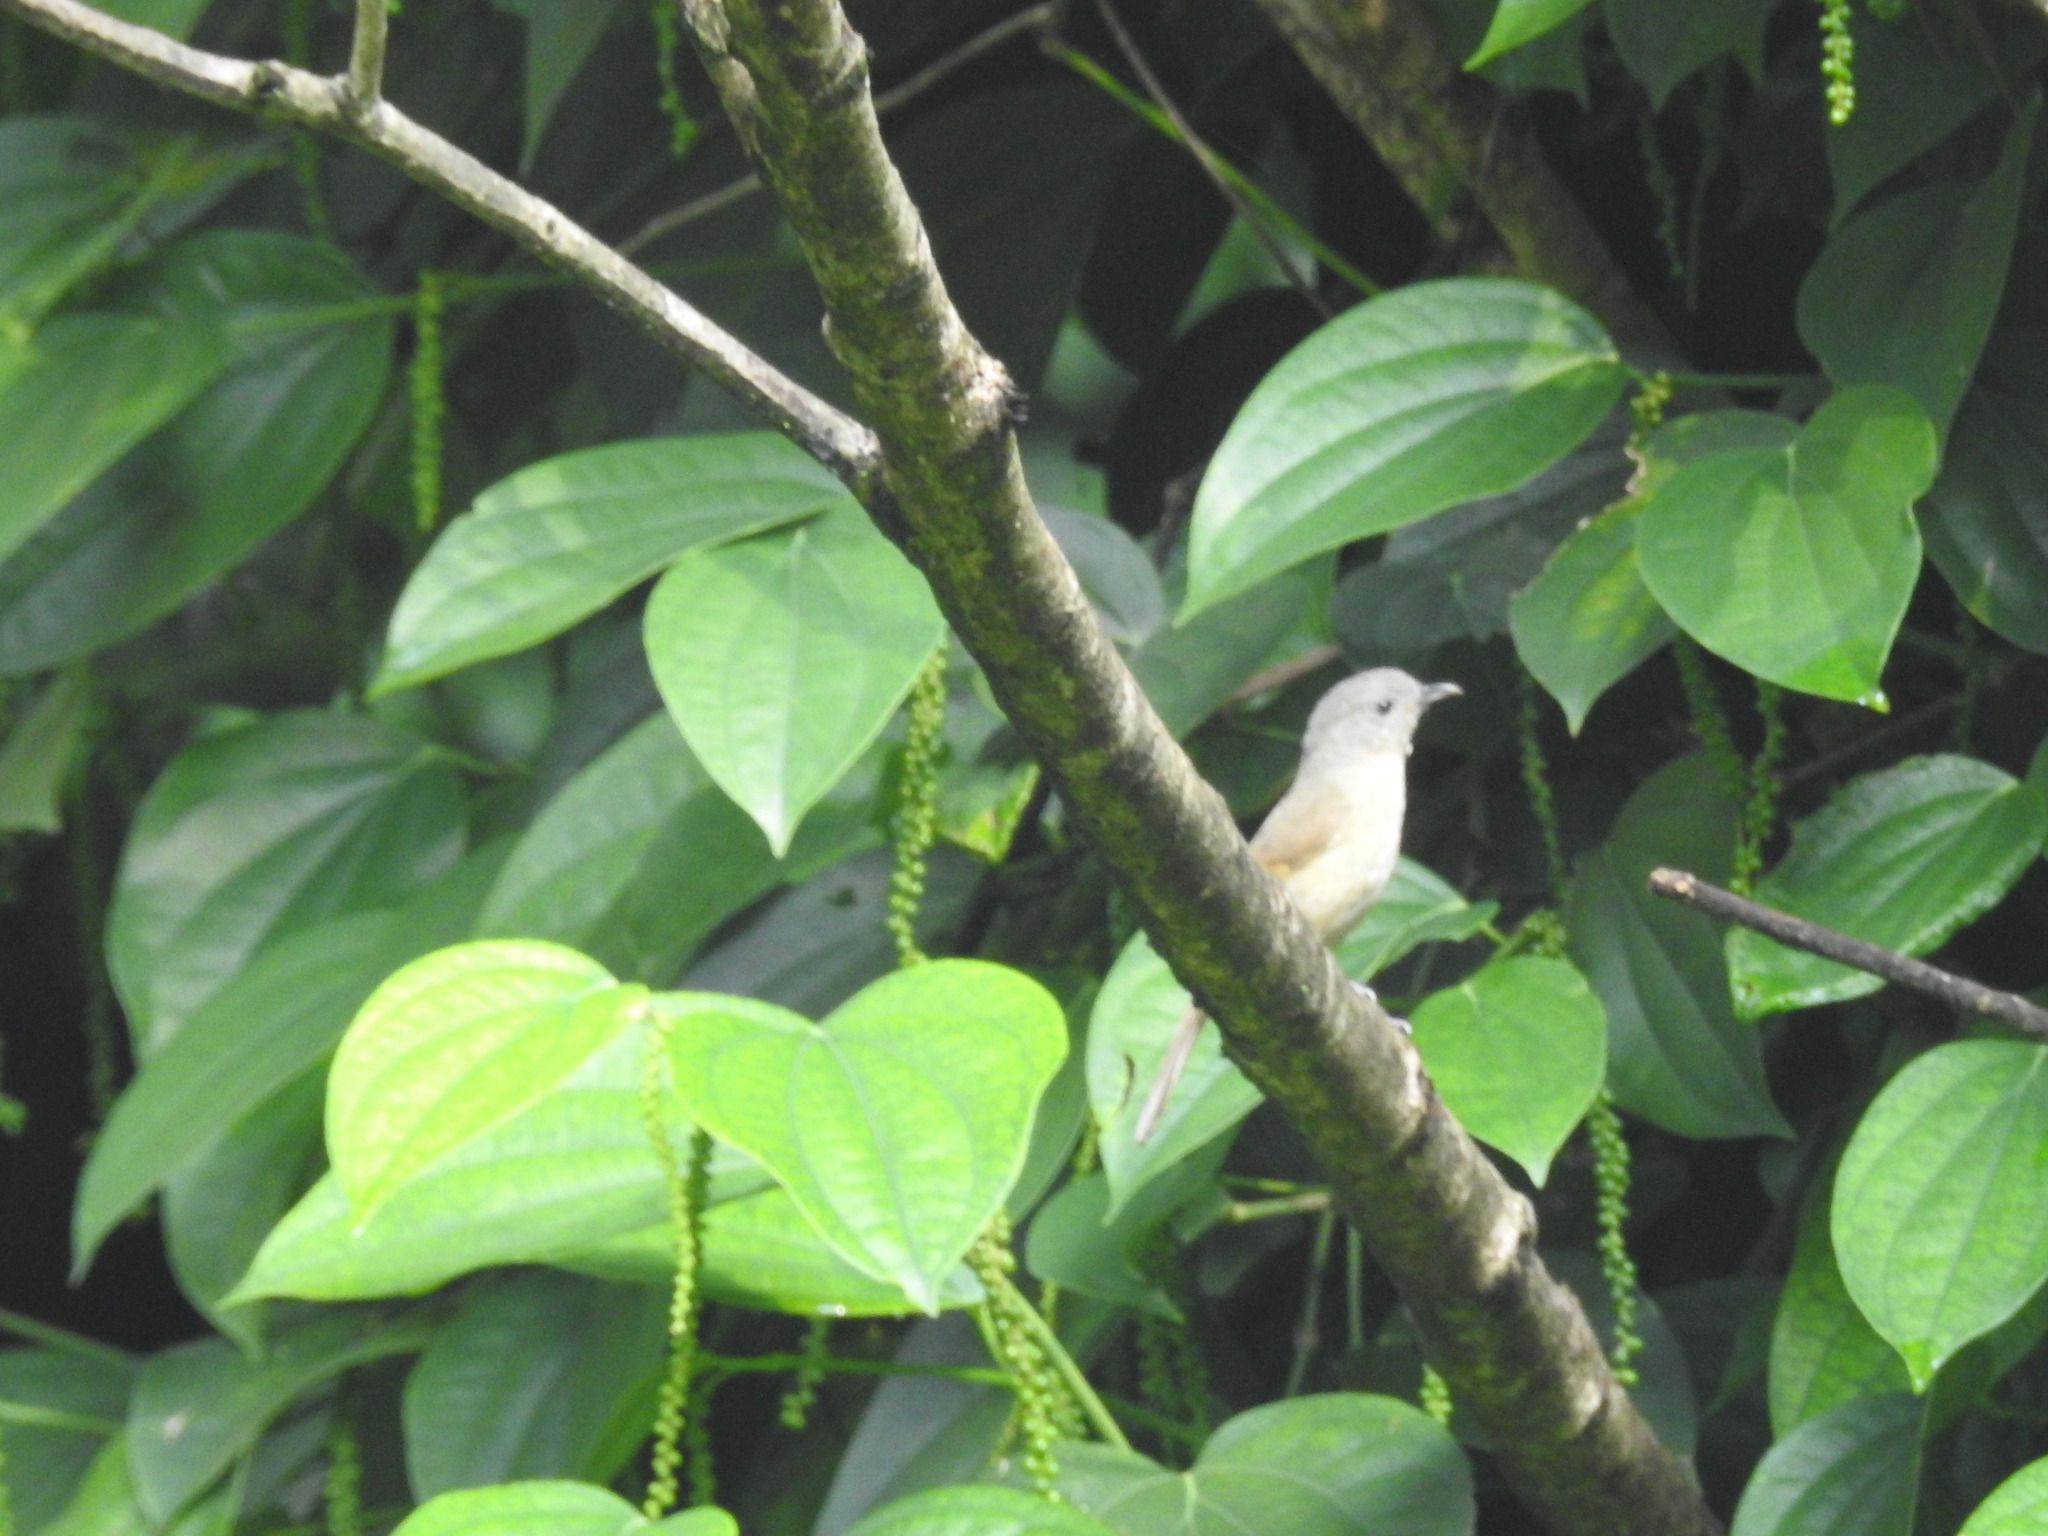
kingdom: Animalia
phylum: Chordata
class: Aves
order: Passeriformes
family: Pellorneidae
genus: Alcippe
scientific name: Alcippe poioicephala
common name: Brown-cheeked fulvetta
